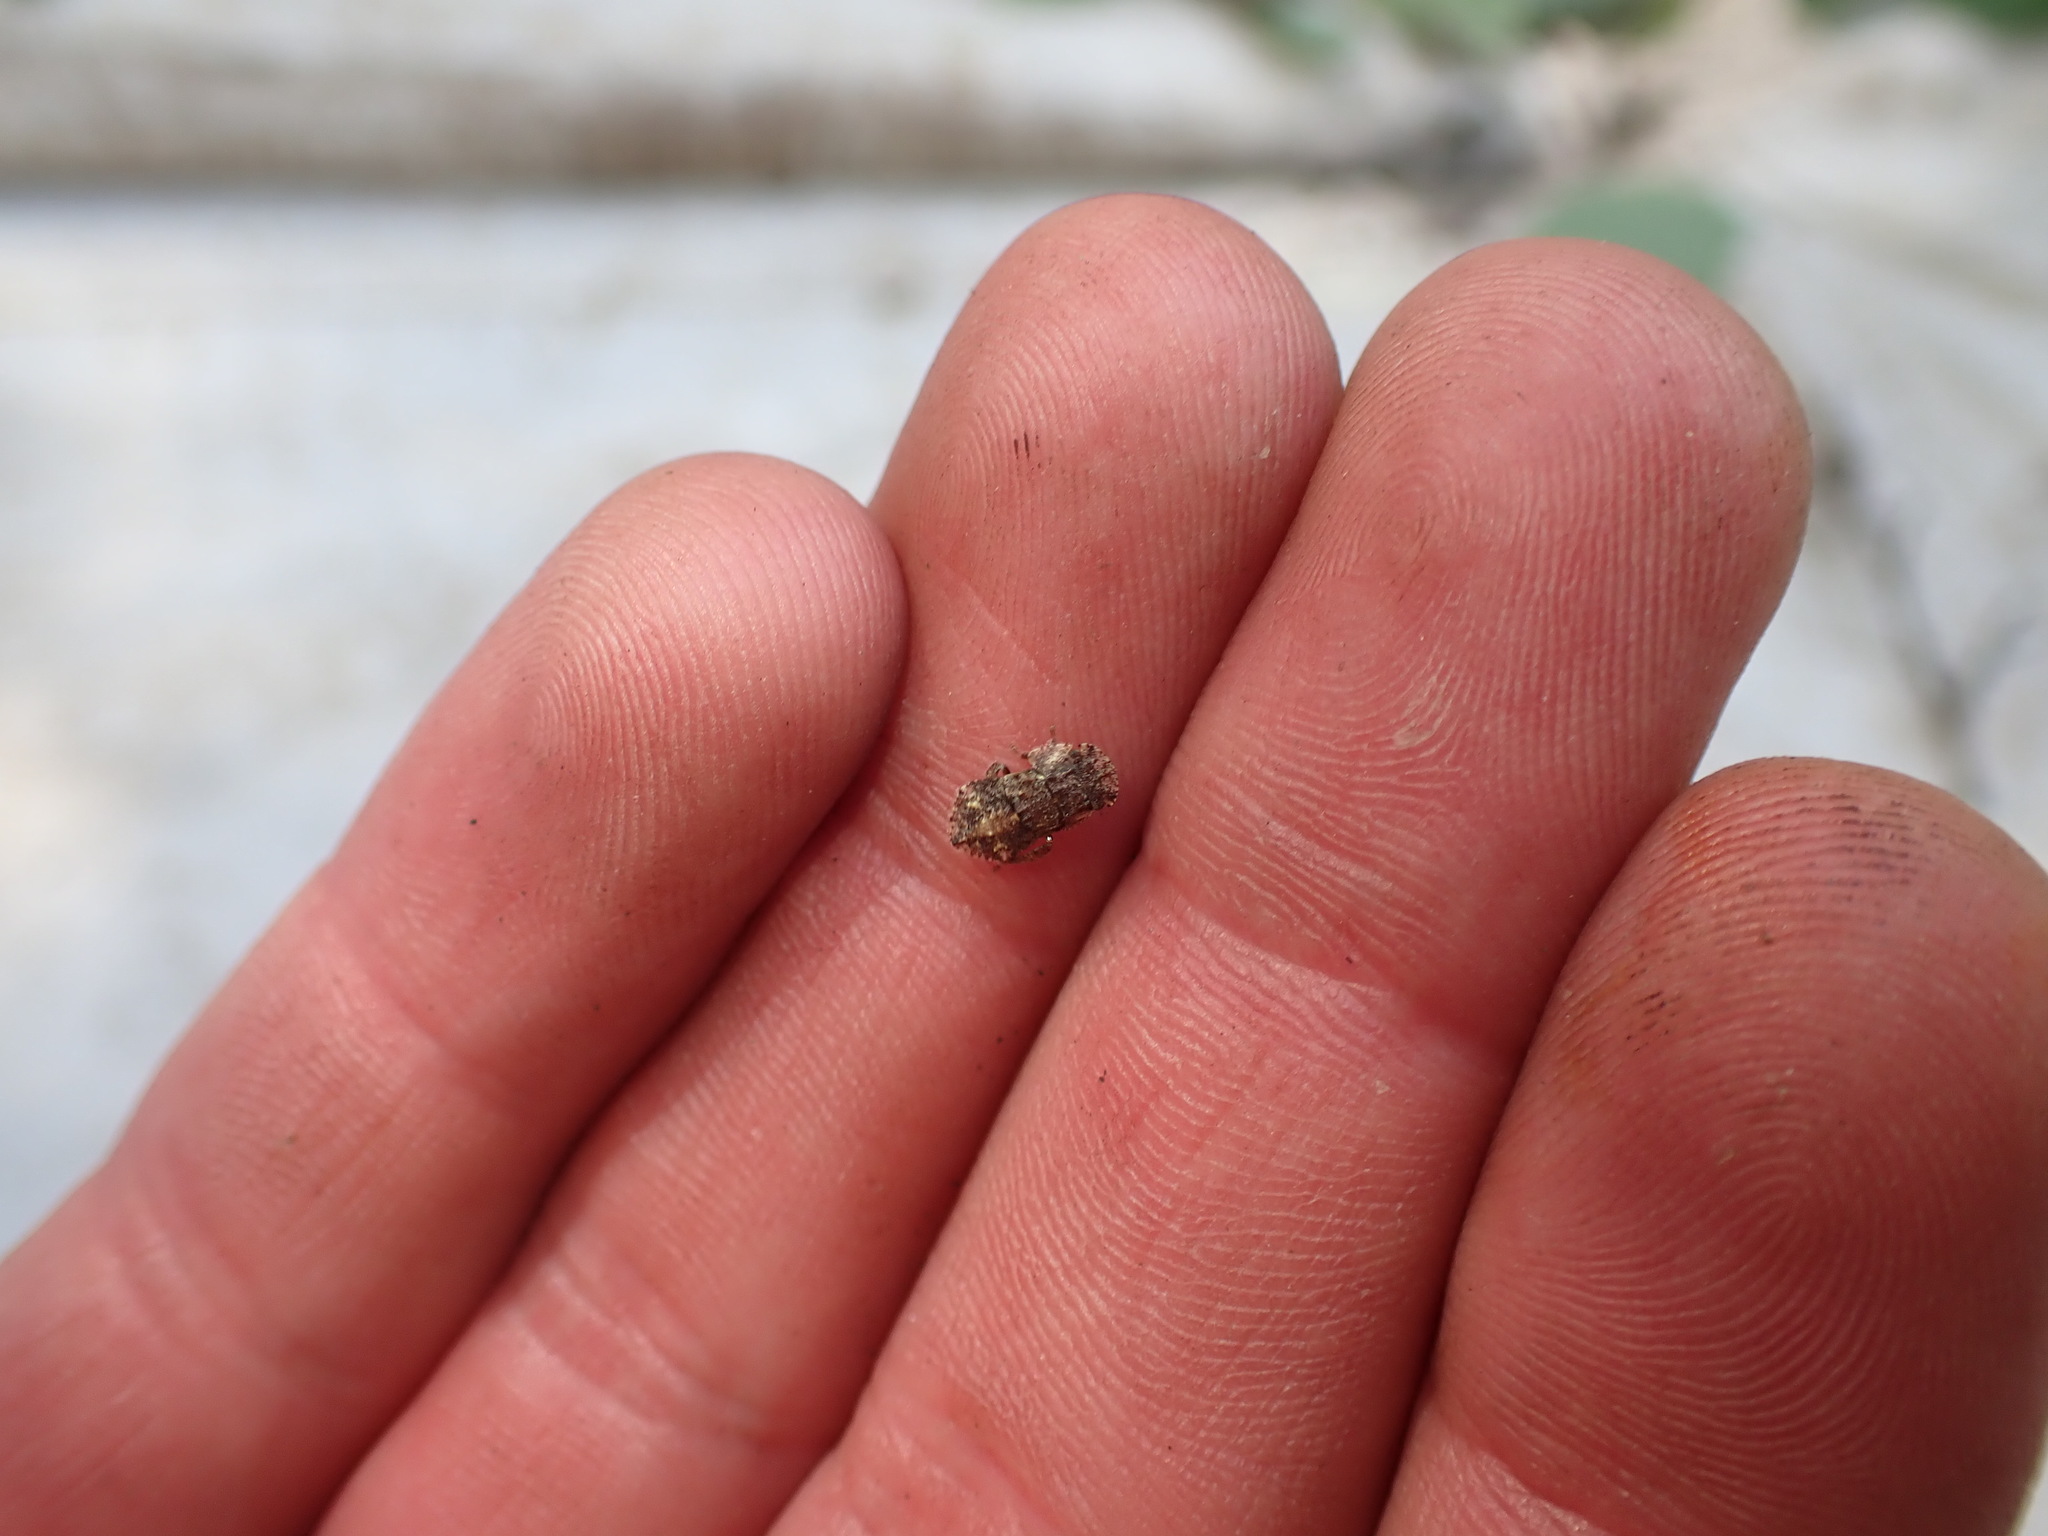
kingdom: Animalia
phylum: Arthropoda
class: Insecta
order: Hemiptera
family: Cicadellidae
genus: Ledra
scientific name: Ledra aurita
